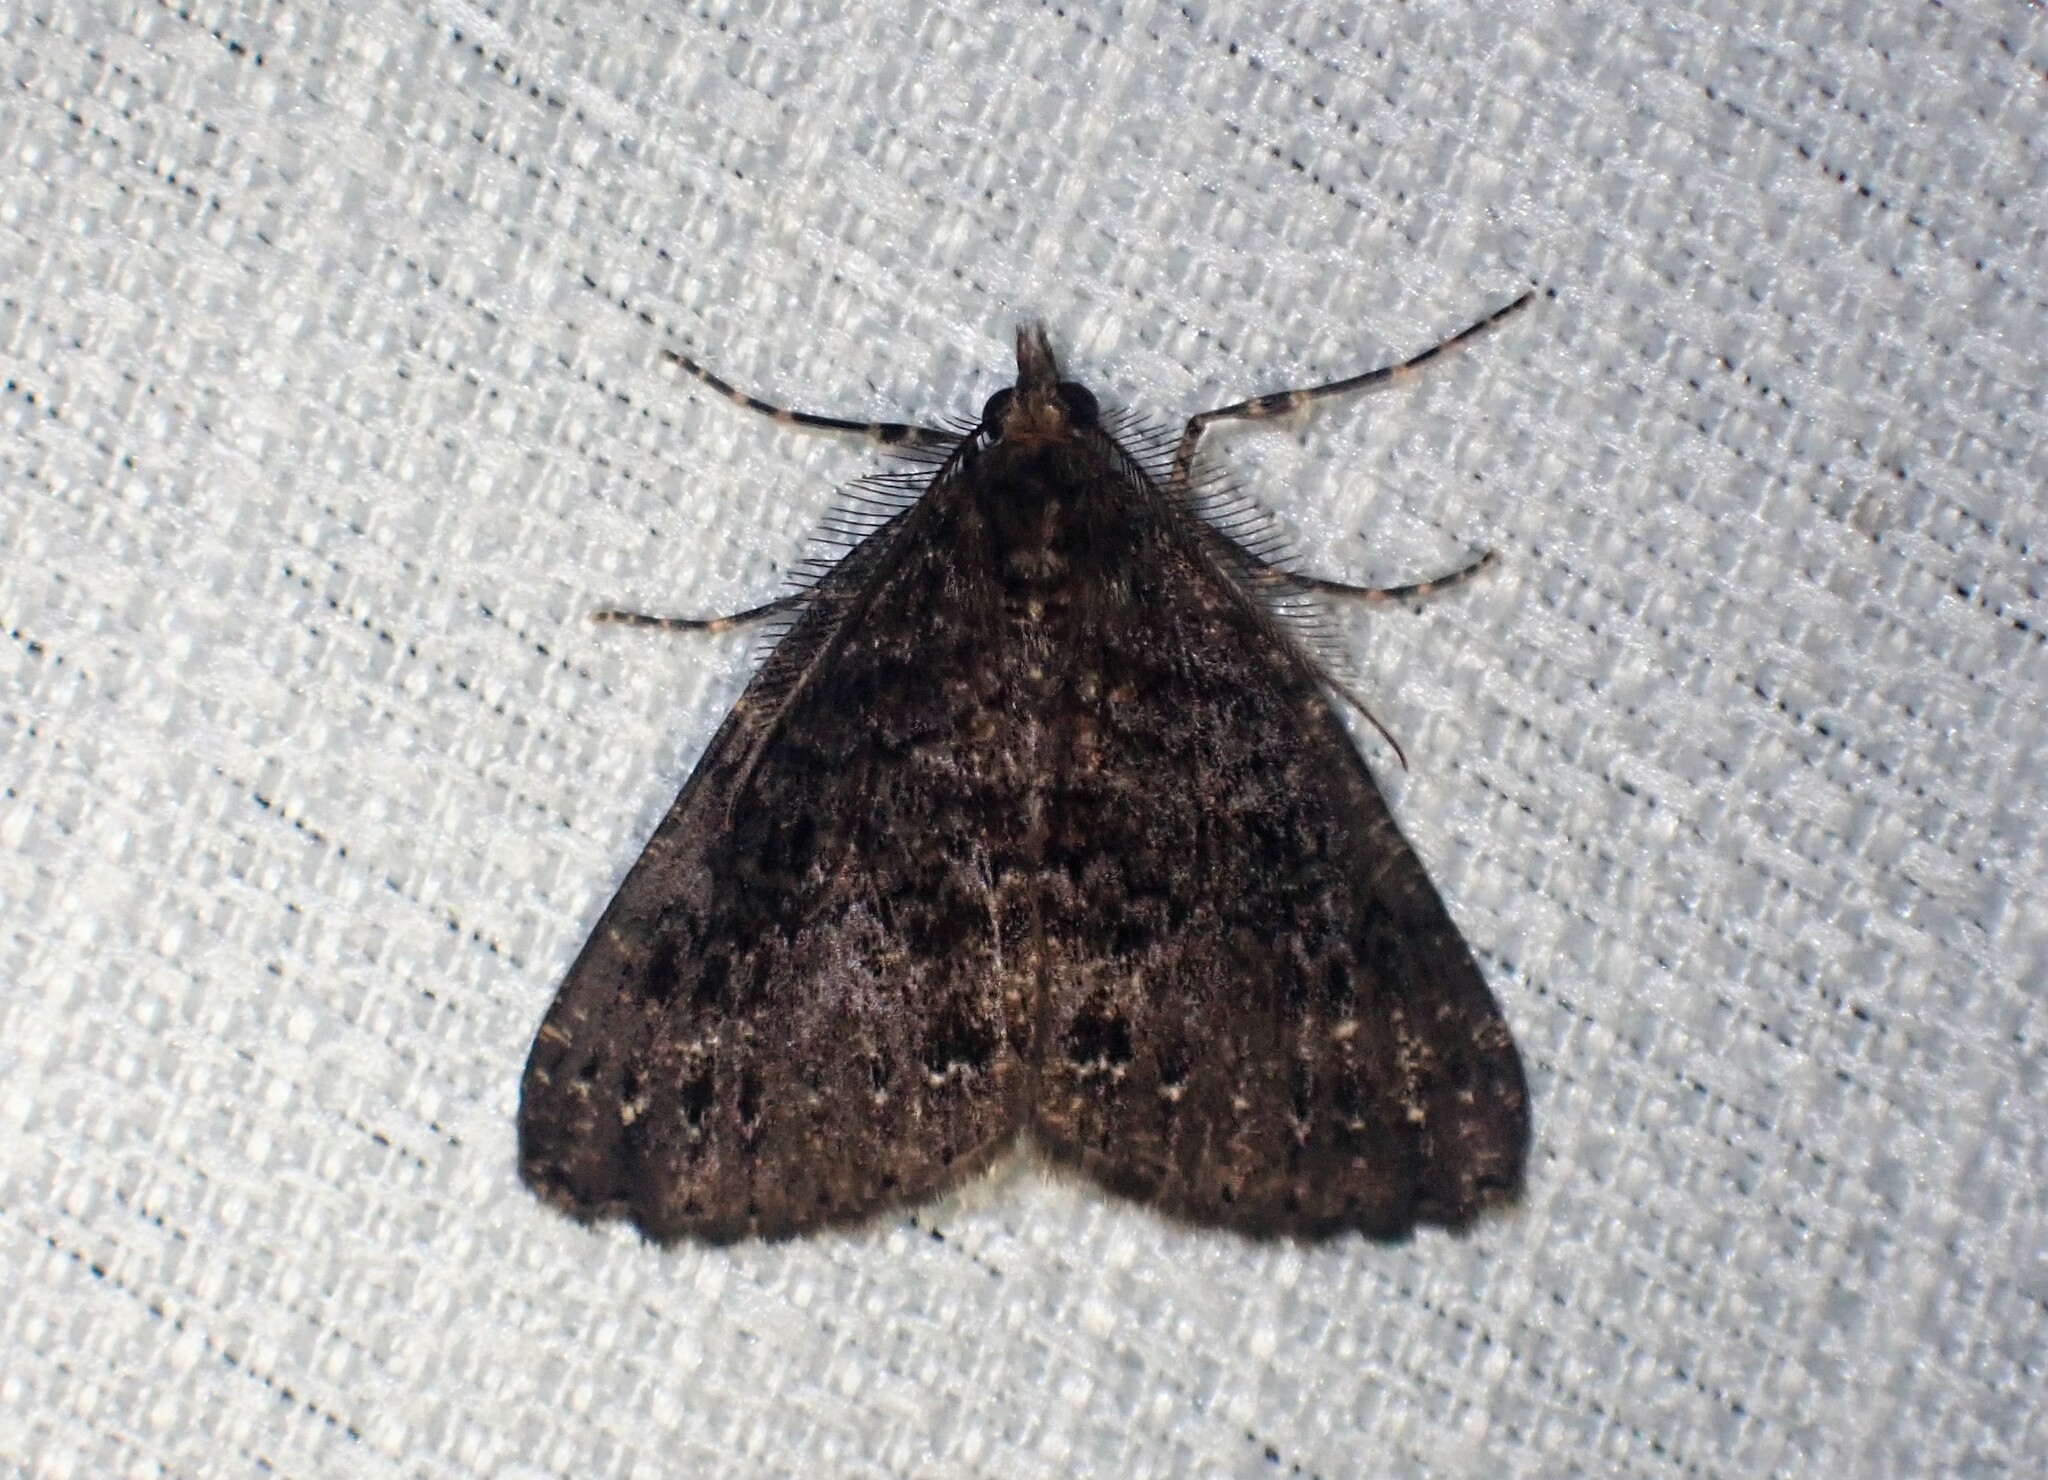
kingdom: Animalia
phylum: Arthropoda
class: Insecta
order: Lepidoptera
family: Geometridae
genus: Ascotis
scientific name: Ascotis fortunata
